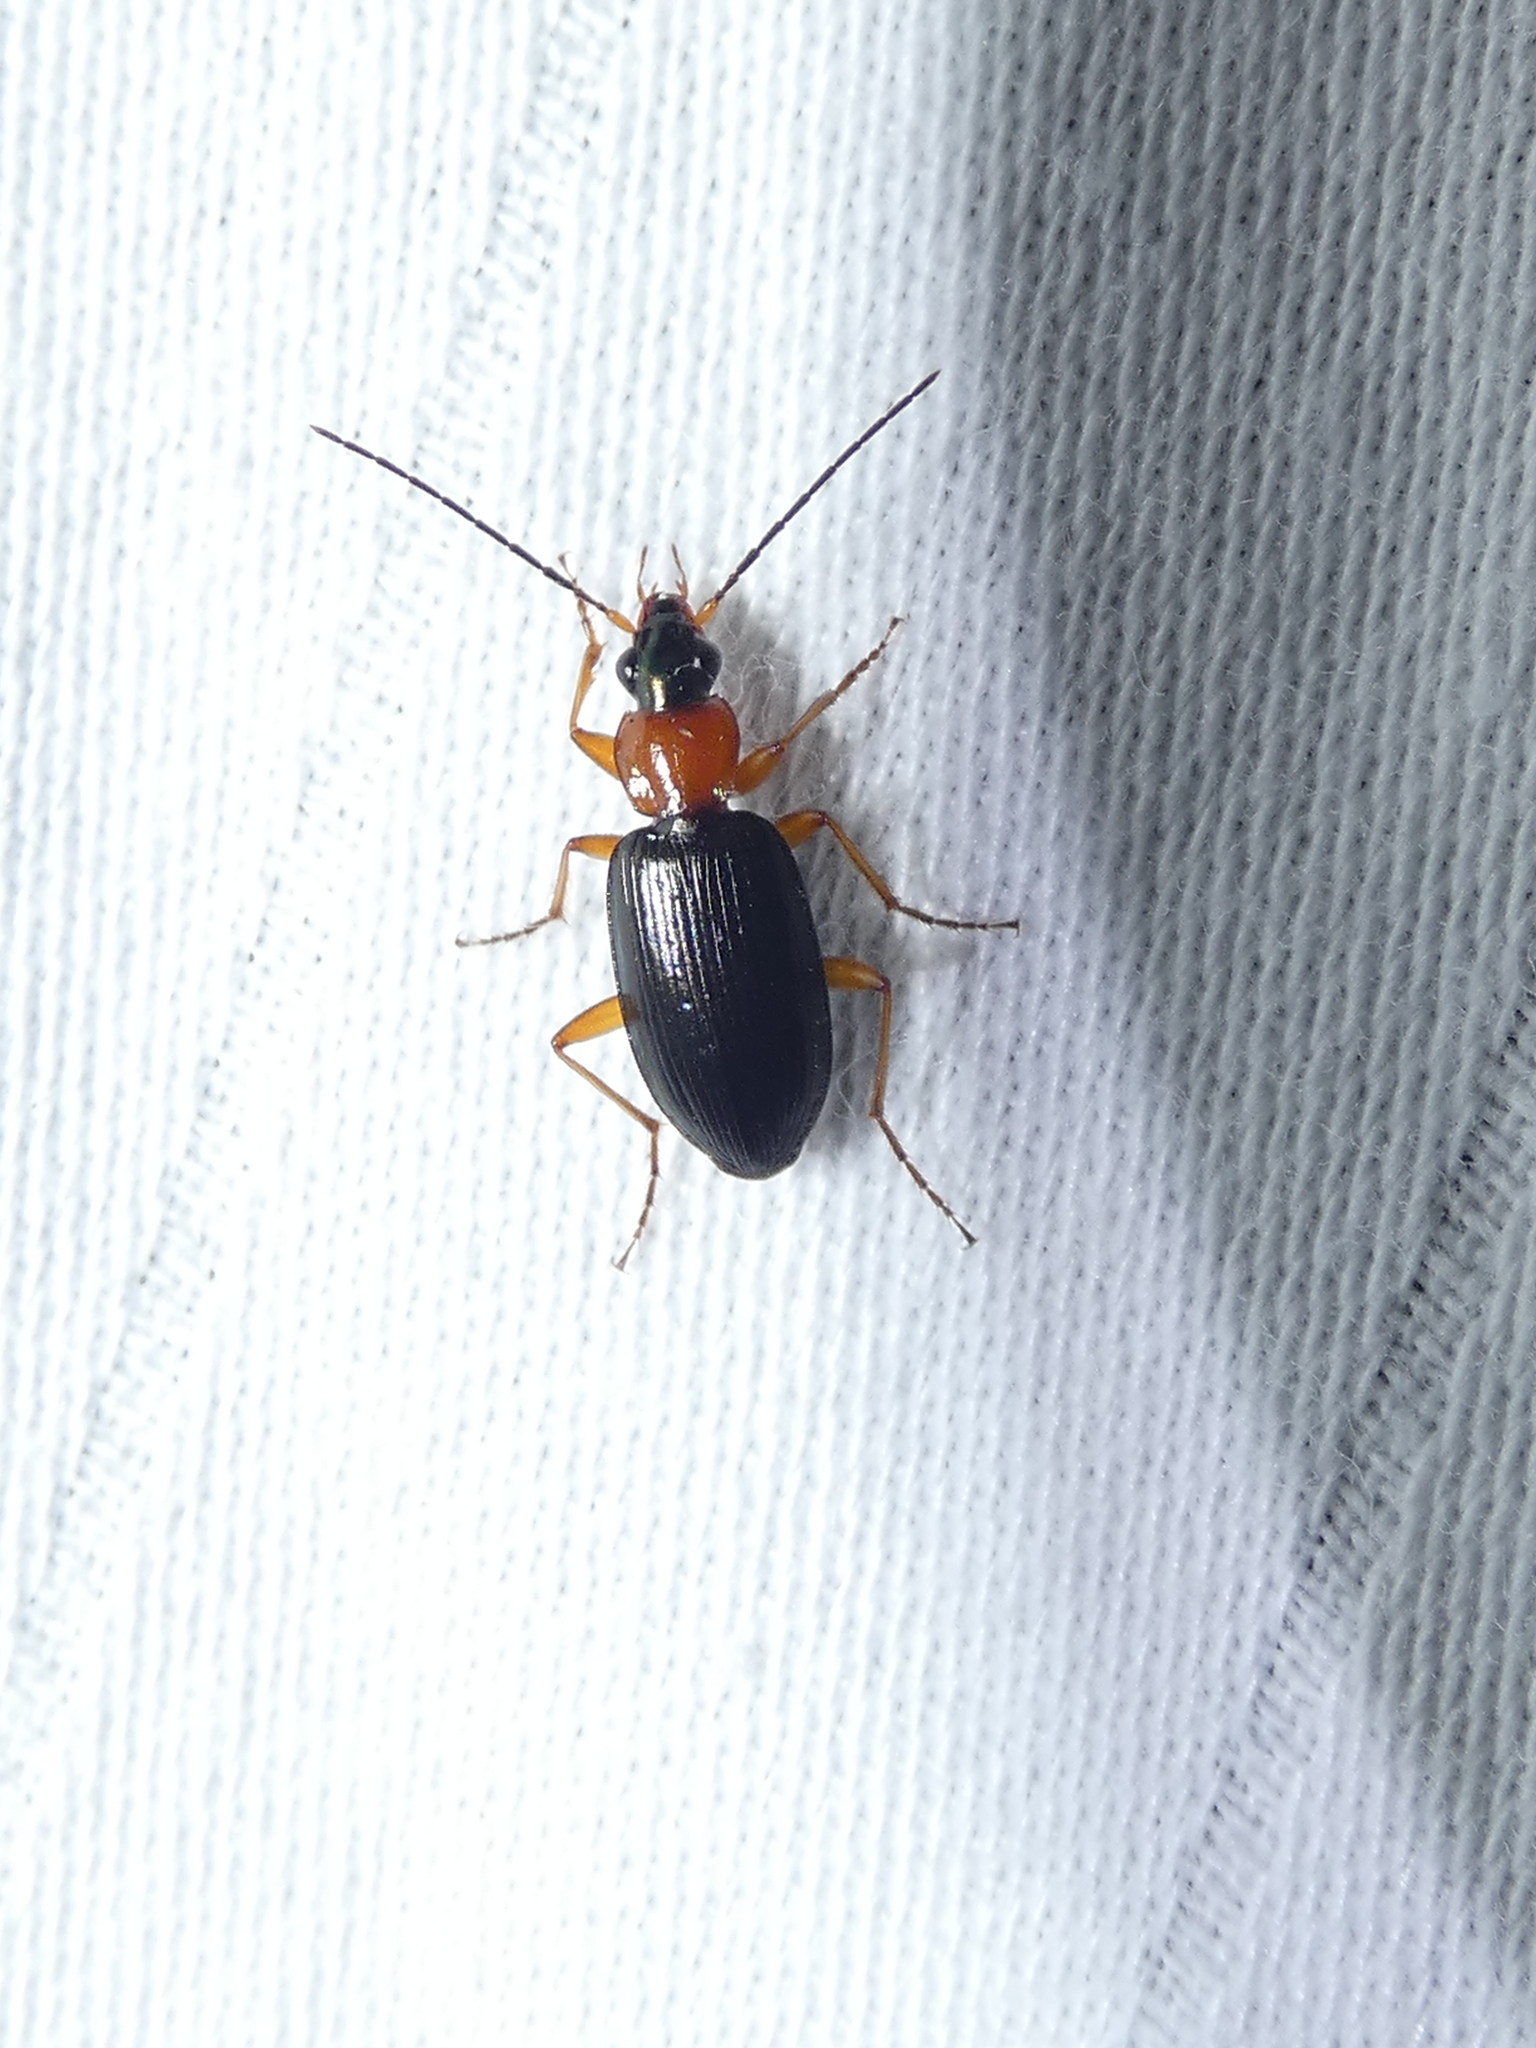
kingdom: Animalia
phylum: Arthropoda
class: Insecta
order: Coleoptera
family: Carabidae
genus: Agonum
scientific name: Agonum decorum
